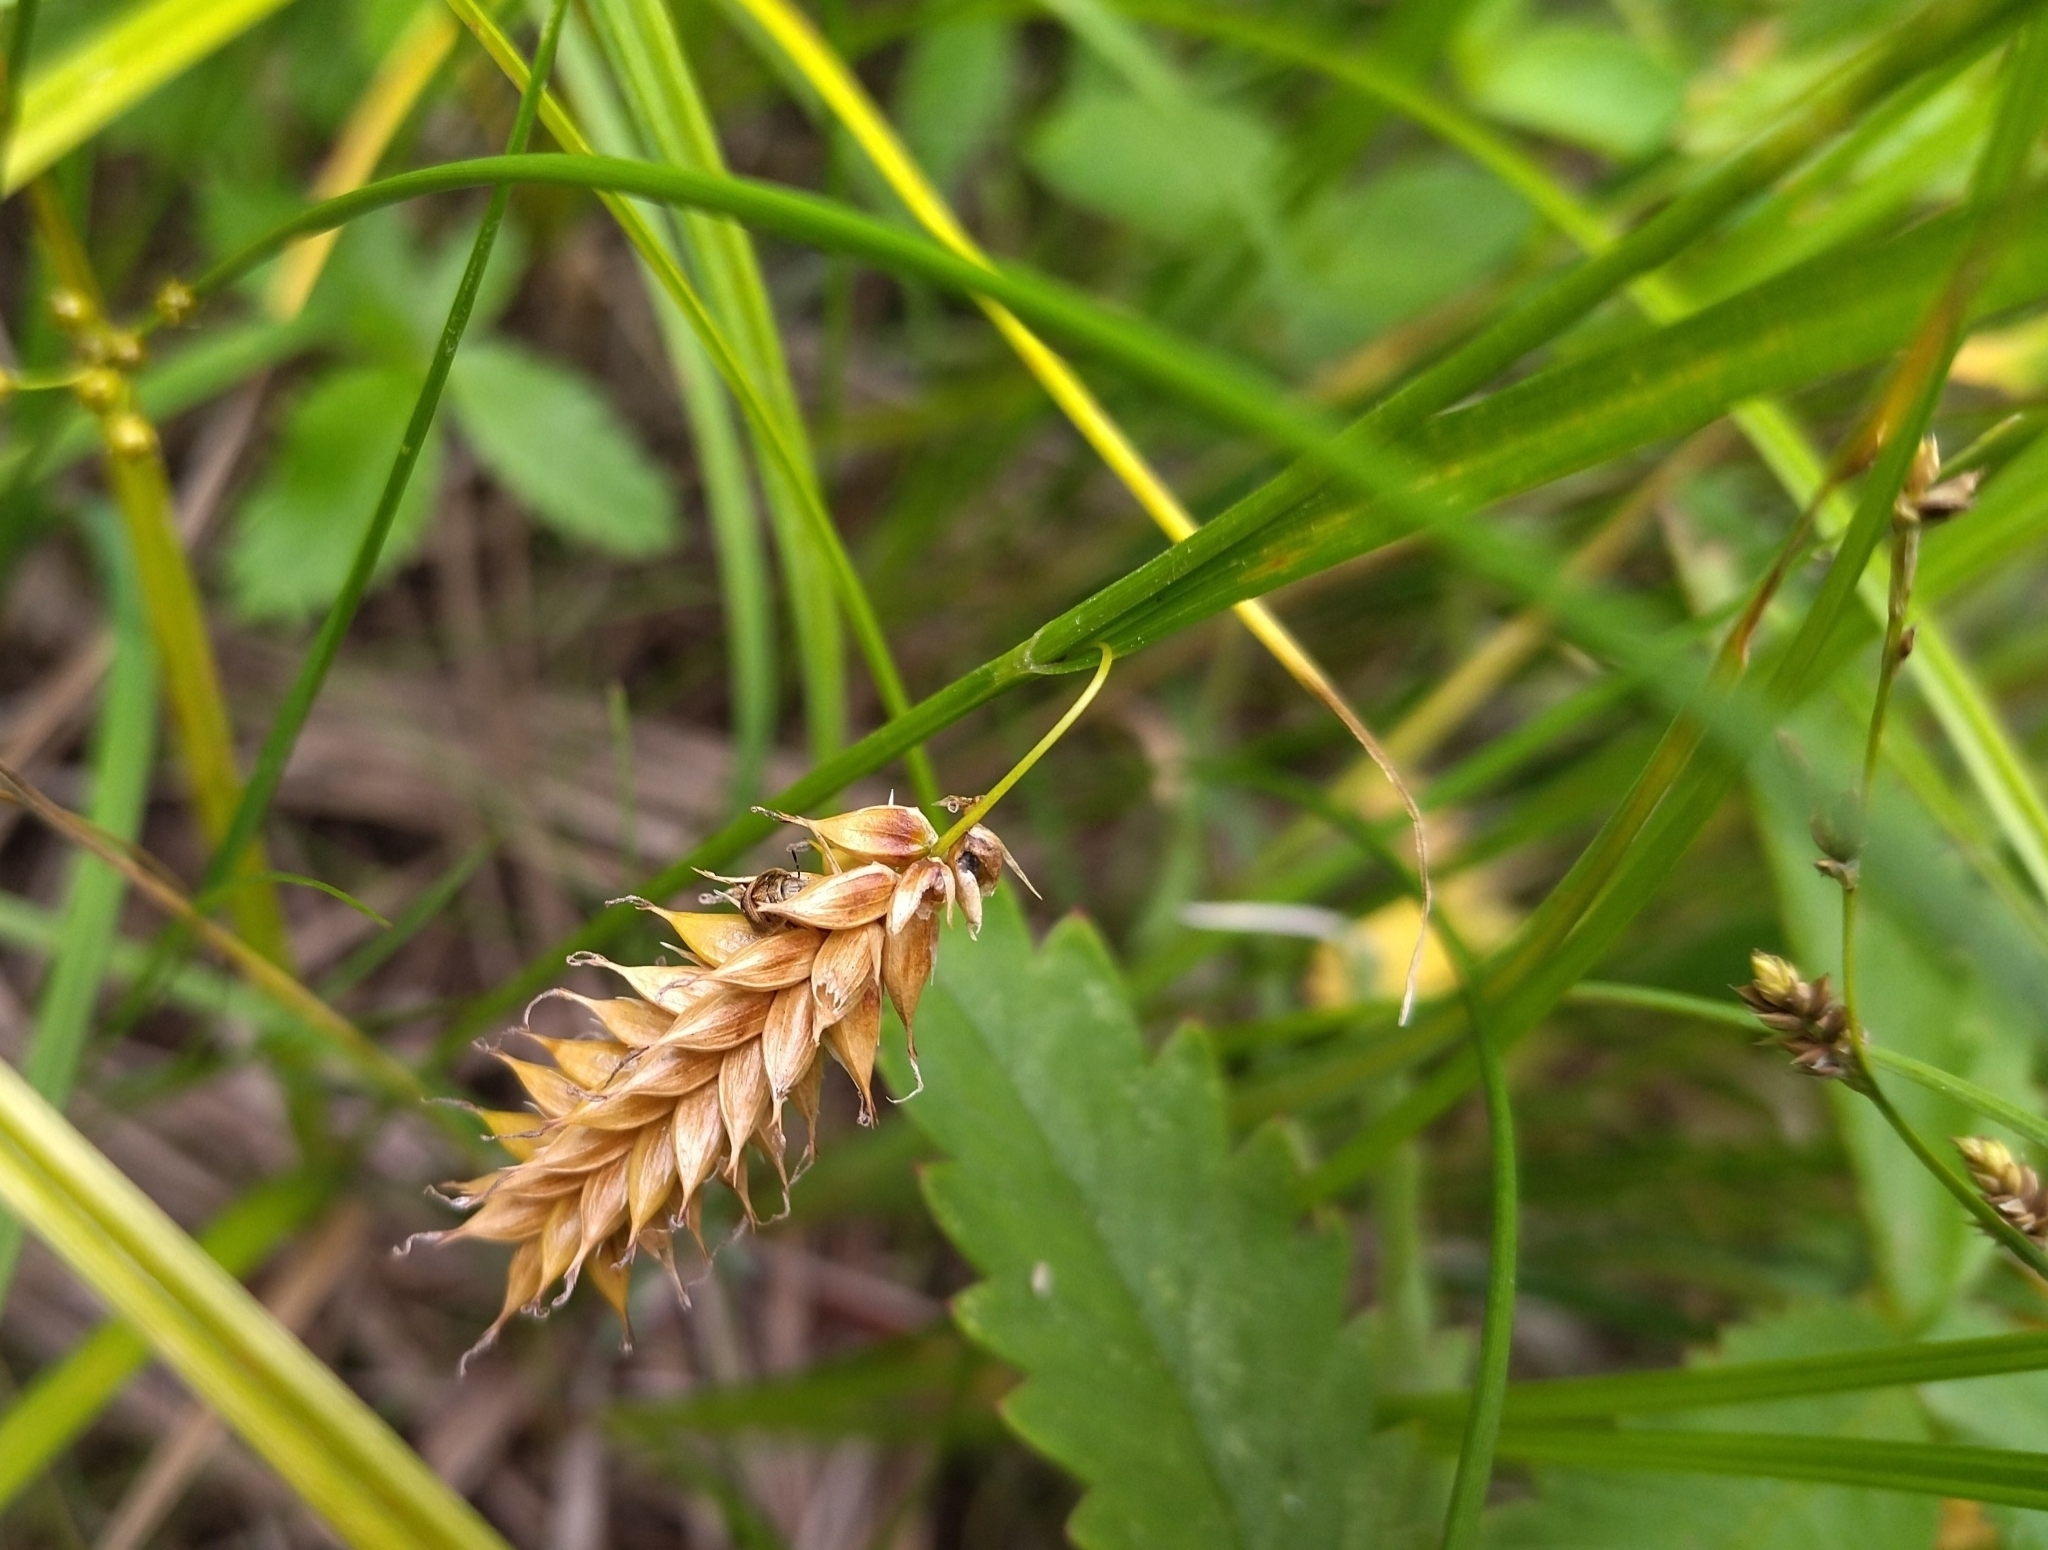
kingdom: Plantae
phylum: Tracheophyta
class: Liliopsida
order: Poales
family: Cyperaceae
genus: Carex
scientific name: Carex vesicaria
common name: Bladder-sedge
